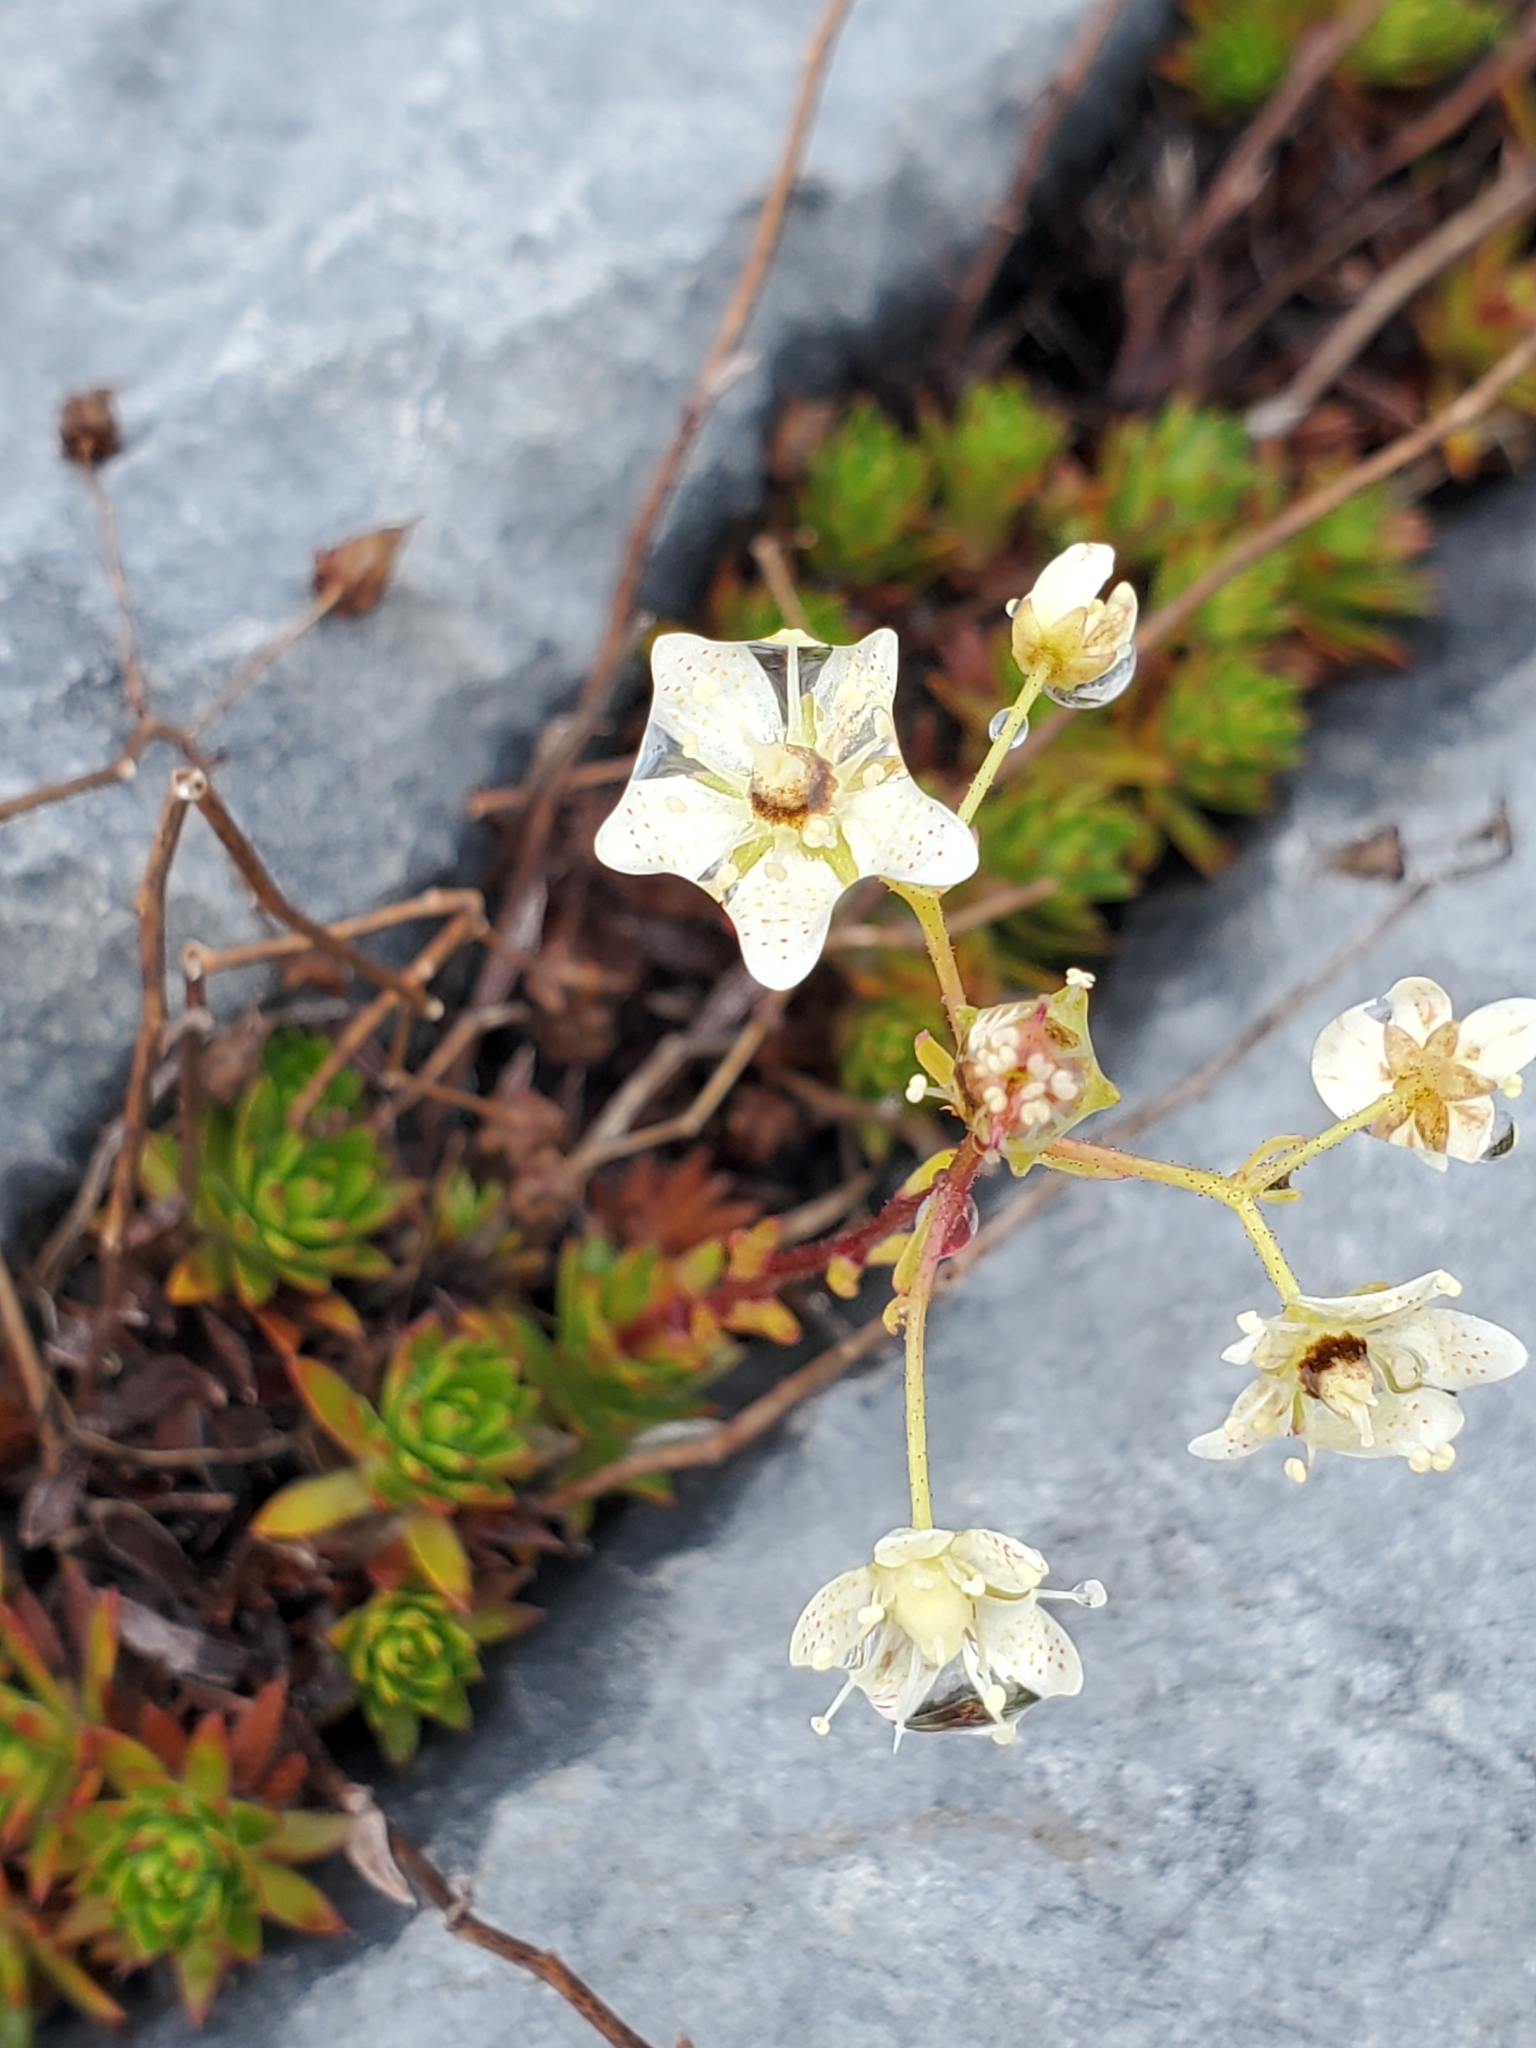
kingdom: Plantae
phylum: Tracheophyta
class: Magnoliopsida
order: Saxifragales
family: Saxifragaceae
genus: Saxifraga
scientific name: Saxifraga bronchialis
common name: Matted saxifrage
